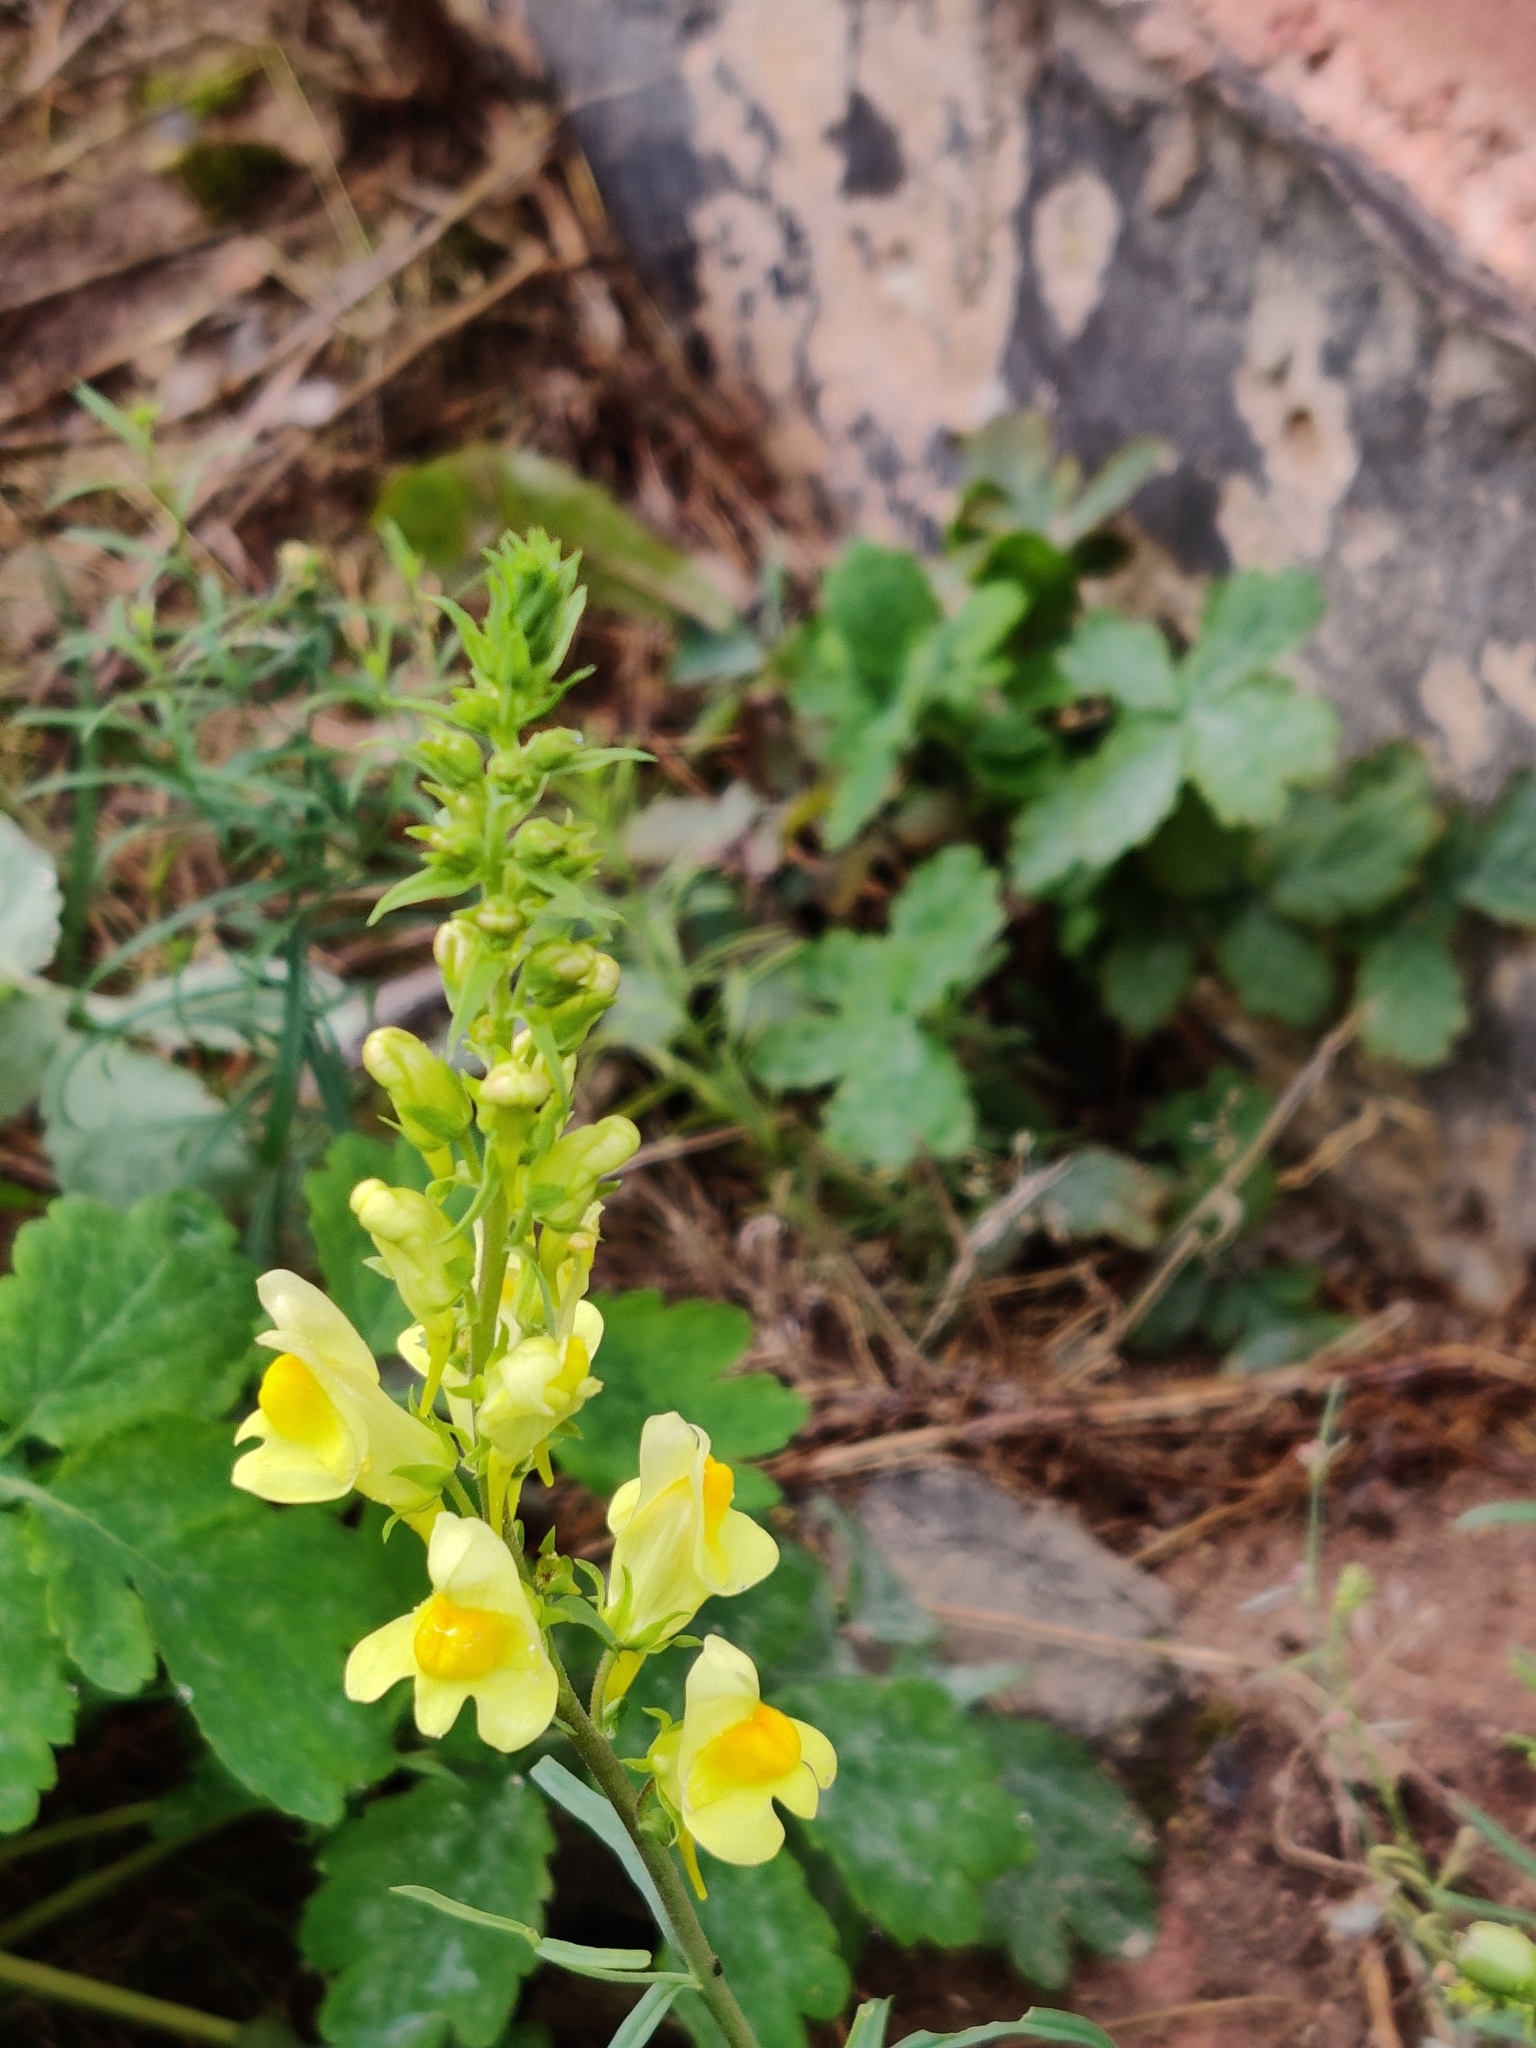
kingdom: Plantae
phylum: Tracheophyta
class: Magnoliopsida
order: Lamiales
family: Plantaginaceae
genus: Linaria
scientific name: Linaria vulgaris
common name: Butter and eggs
